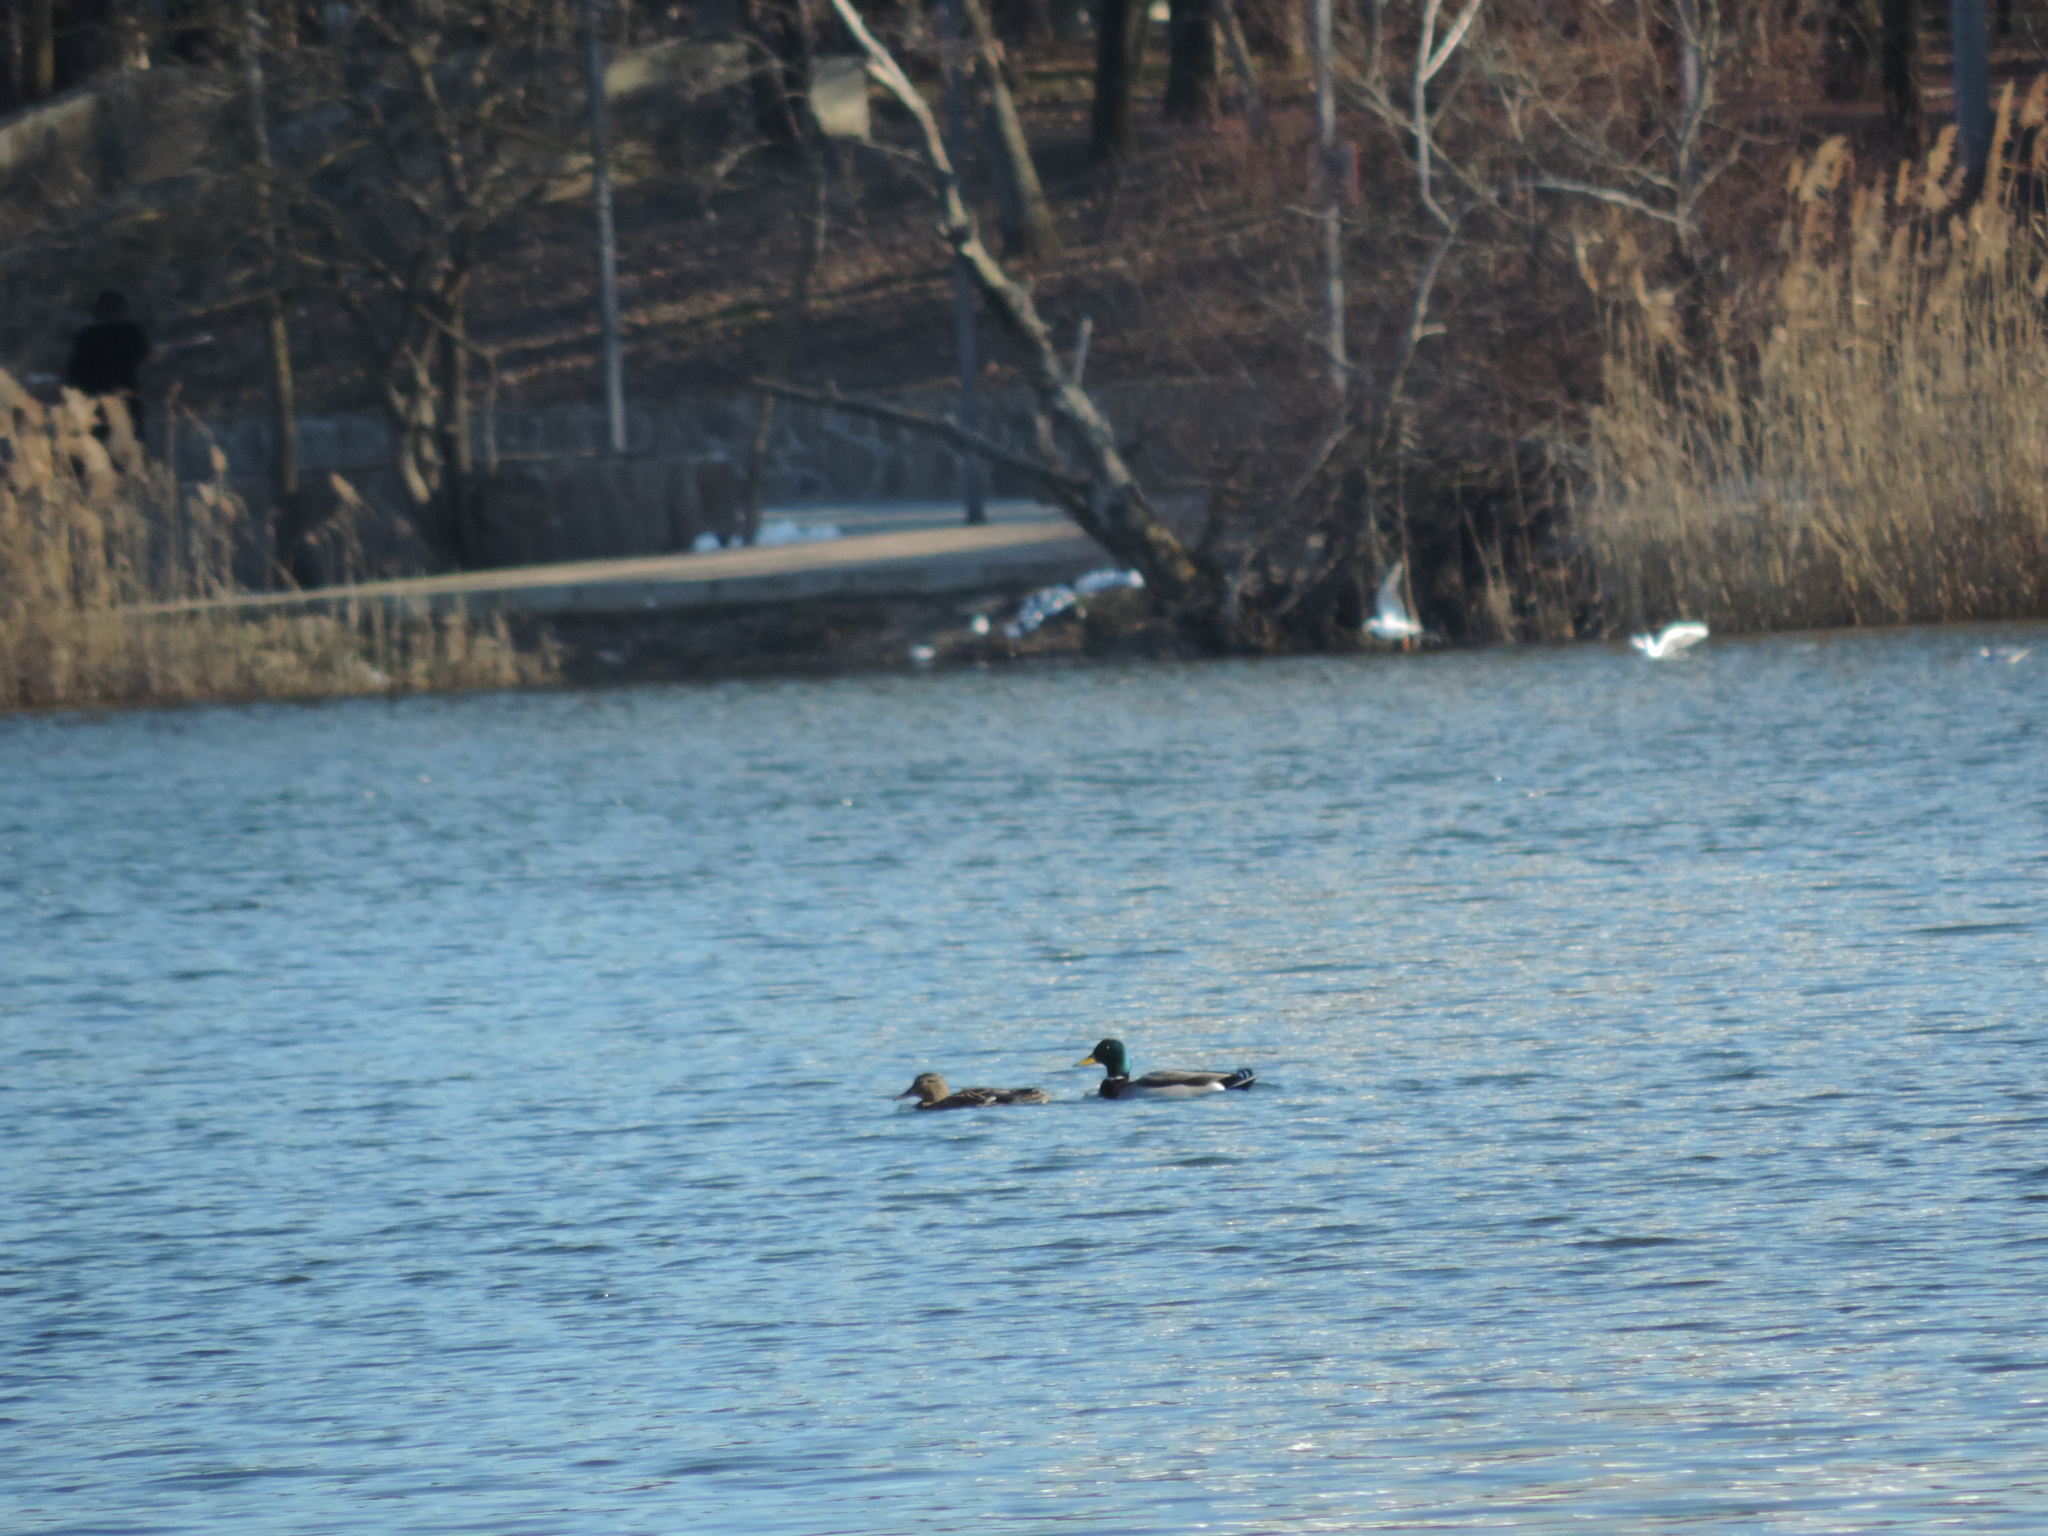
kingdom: Animalia
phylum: Chordata
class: Aves
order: Anseriformes
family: Anatidae
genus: Anas
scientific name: Anas platyrhynchos
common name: Mallard
